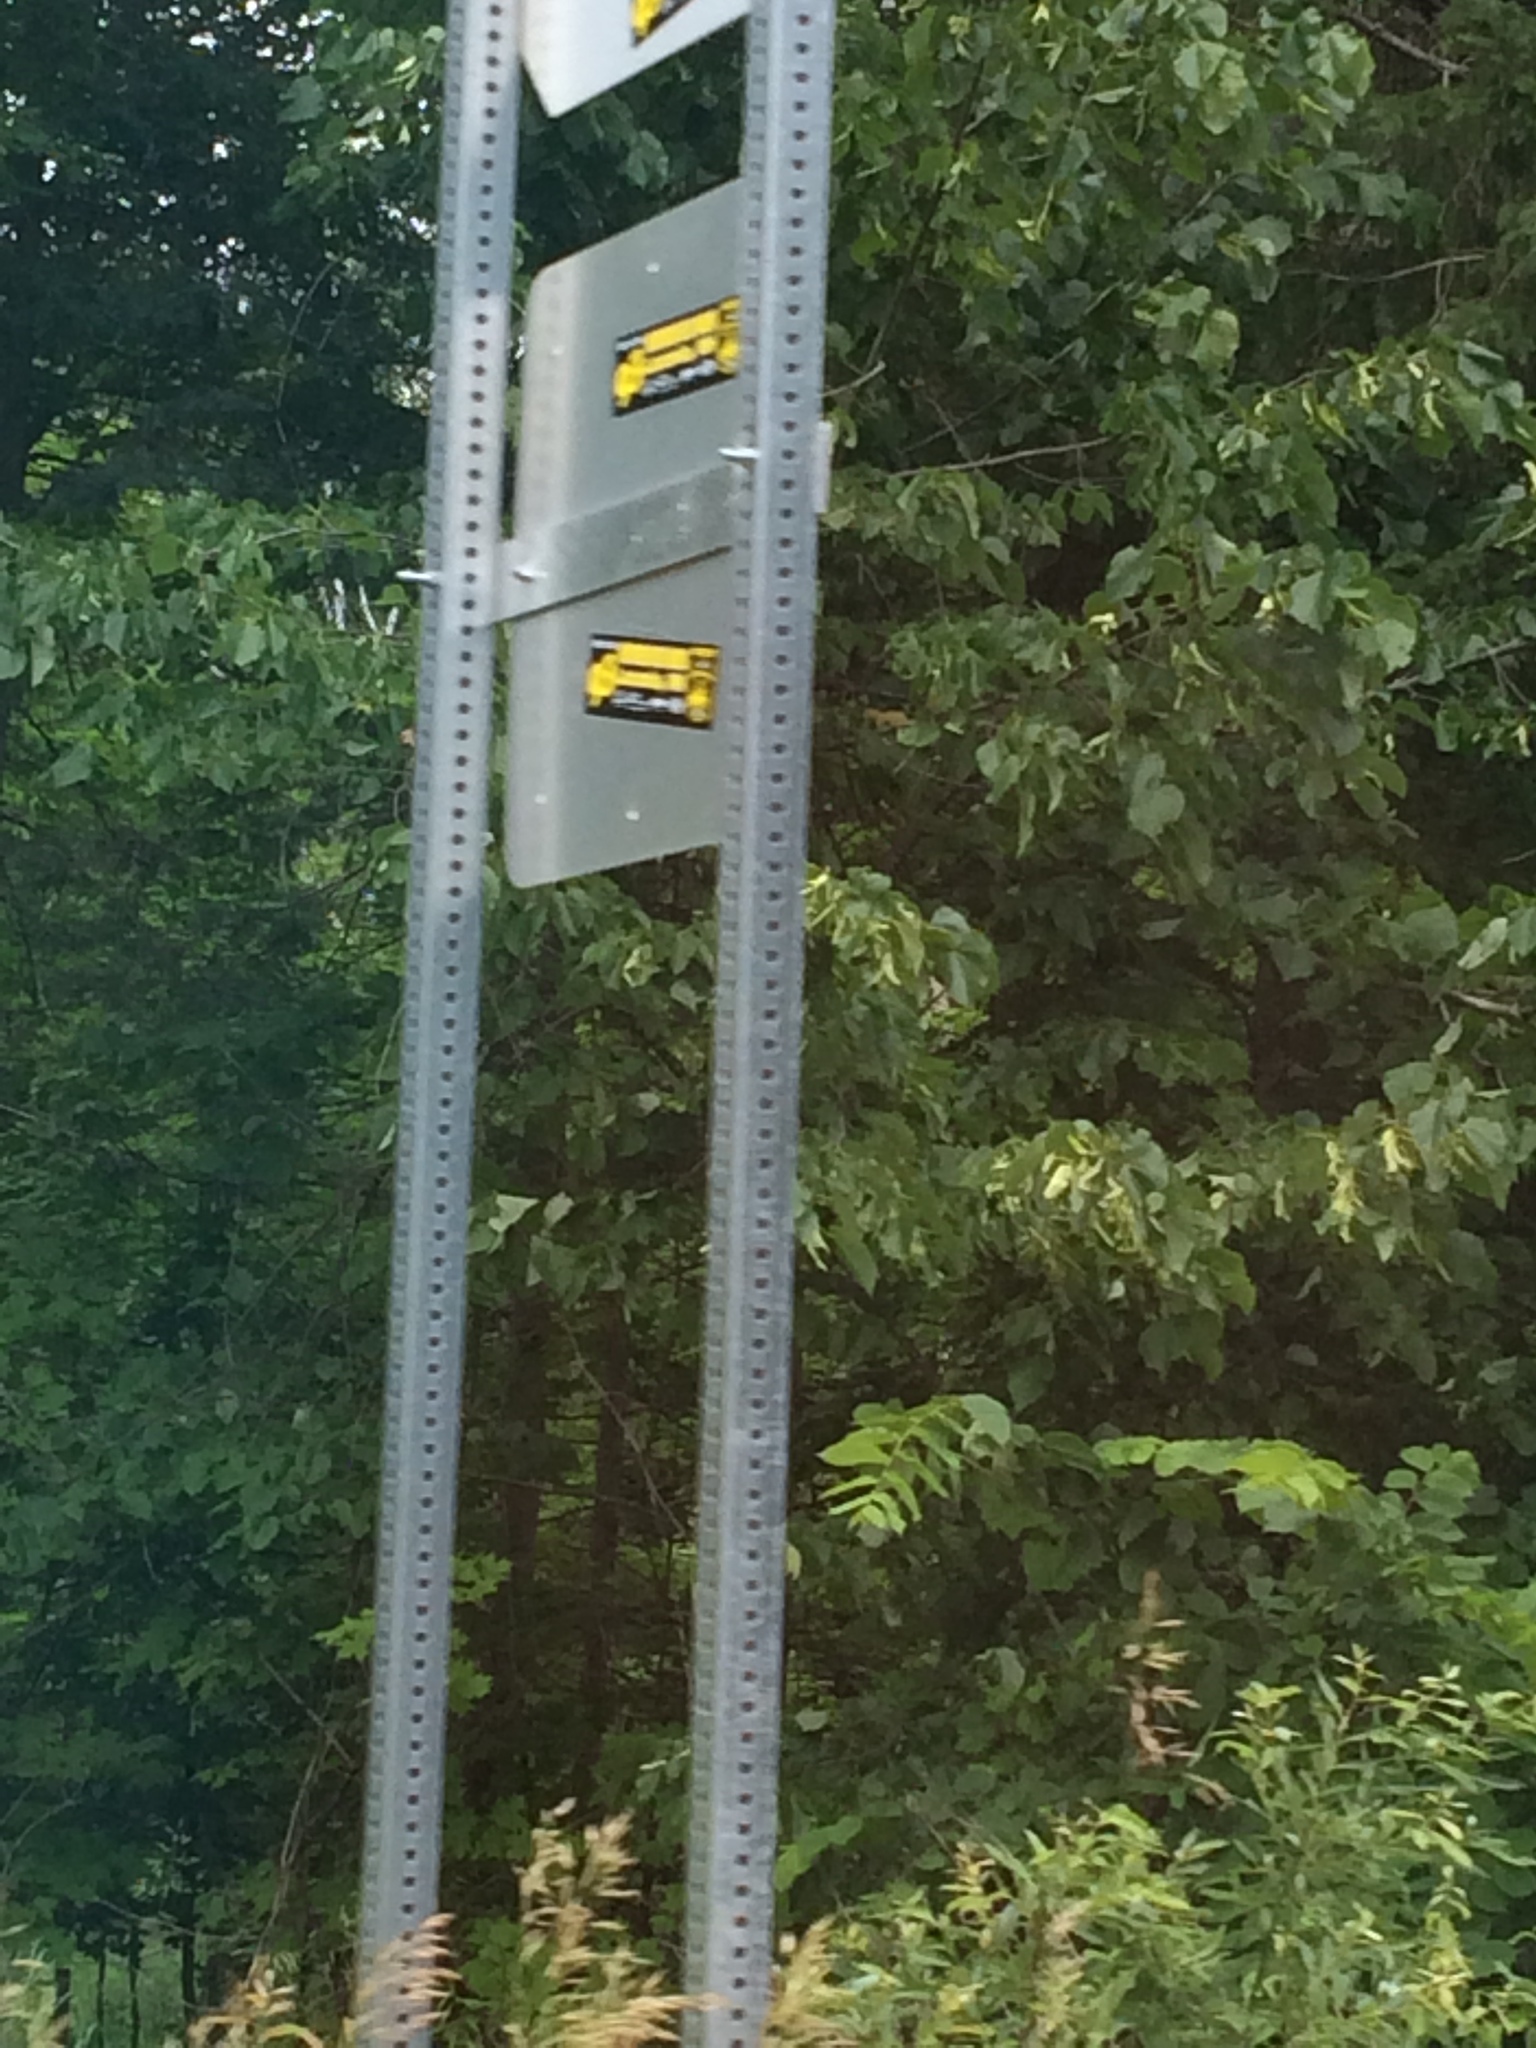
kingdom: Plantae
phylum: Tracheophyta
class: Magnoliopsida
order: Malvales
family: Malvaceae
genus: Tilia
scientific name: Tilia americana
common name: Basswood
